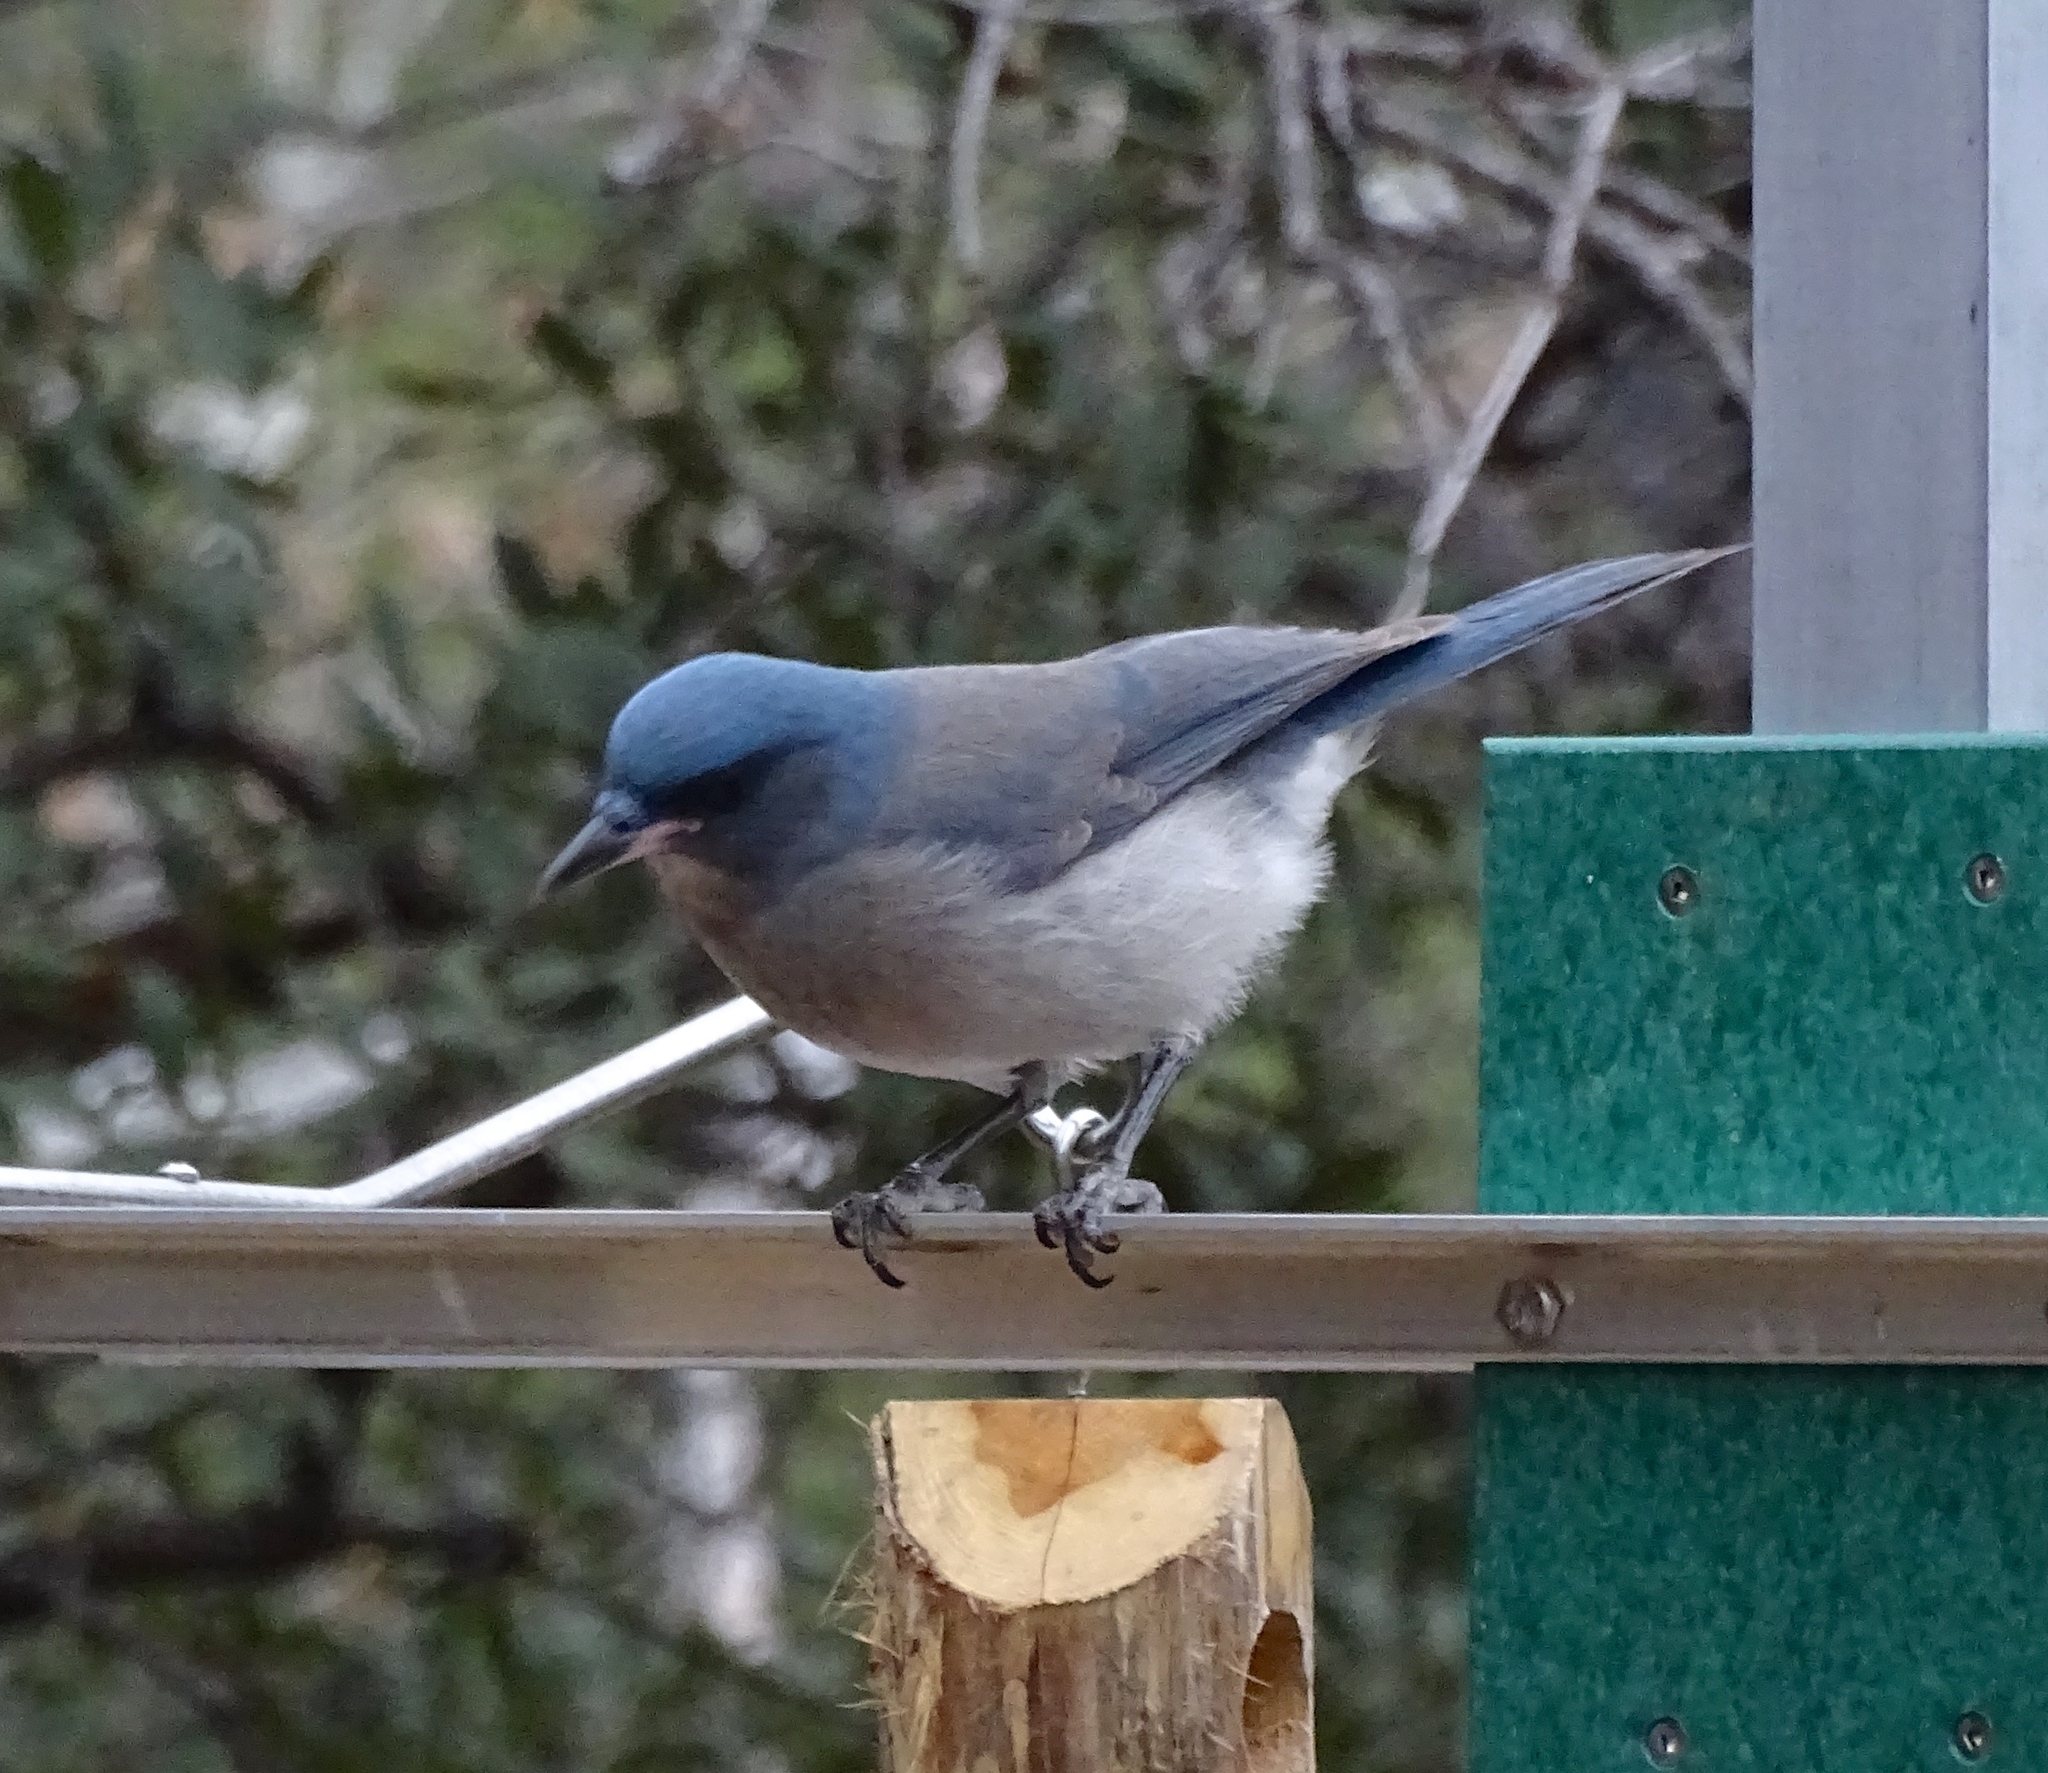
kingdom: Animalia
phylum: Chordata
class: Aves
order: Passeriformes
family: Corvidae
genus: Aphelocoma
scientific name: Aphelocoma wollweberi
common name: Mexican jay
